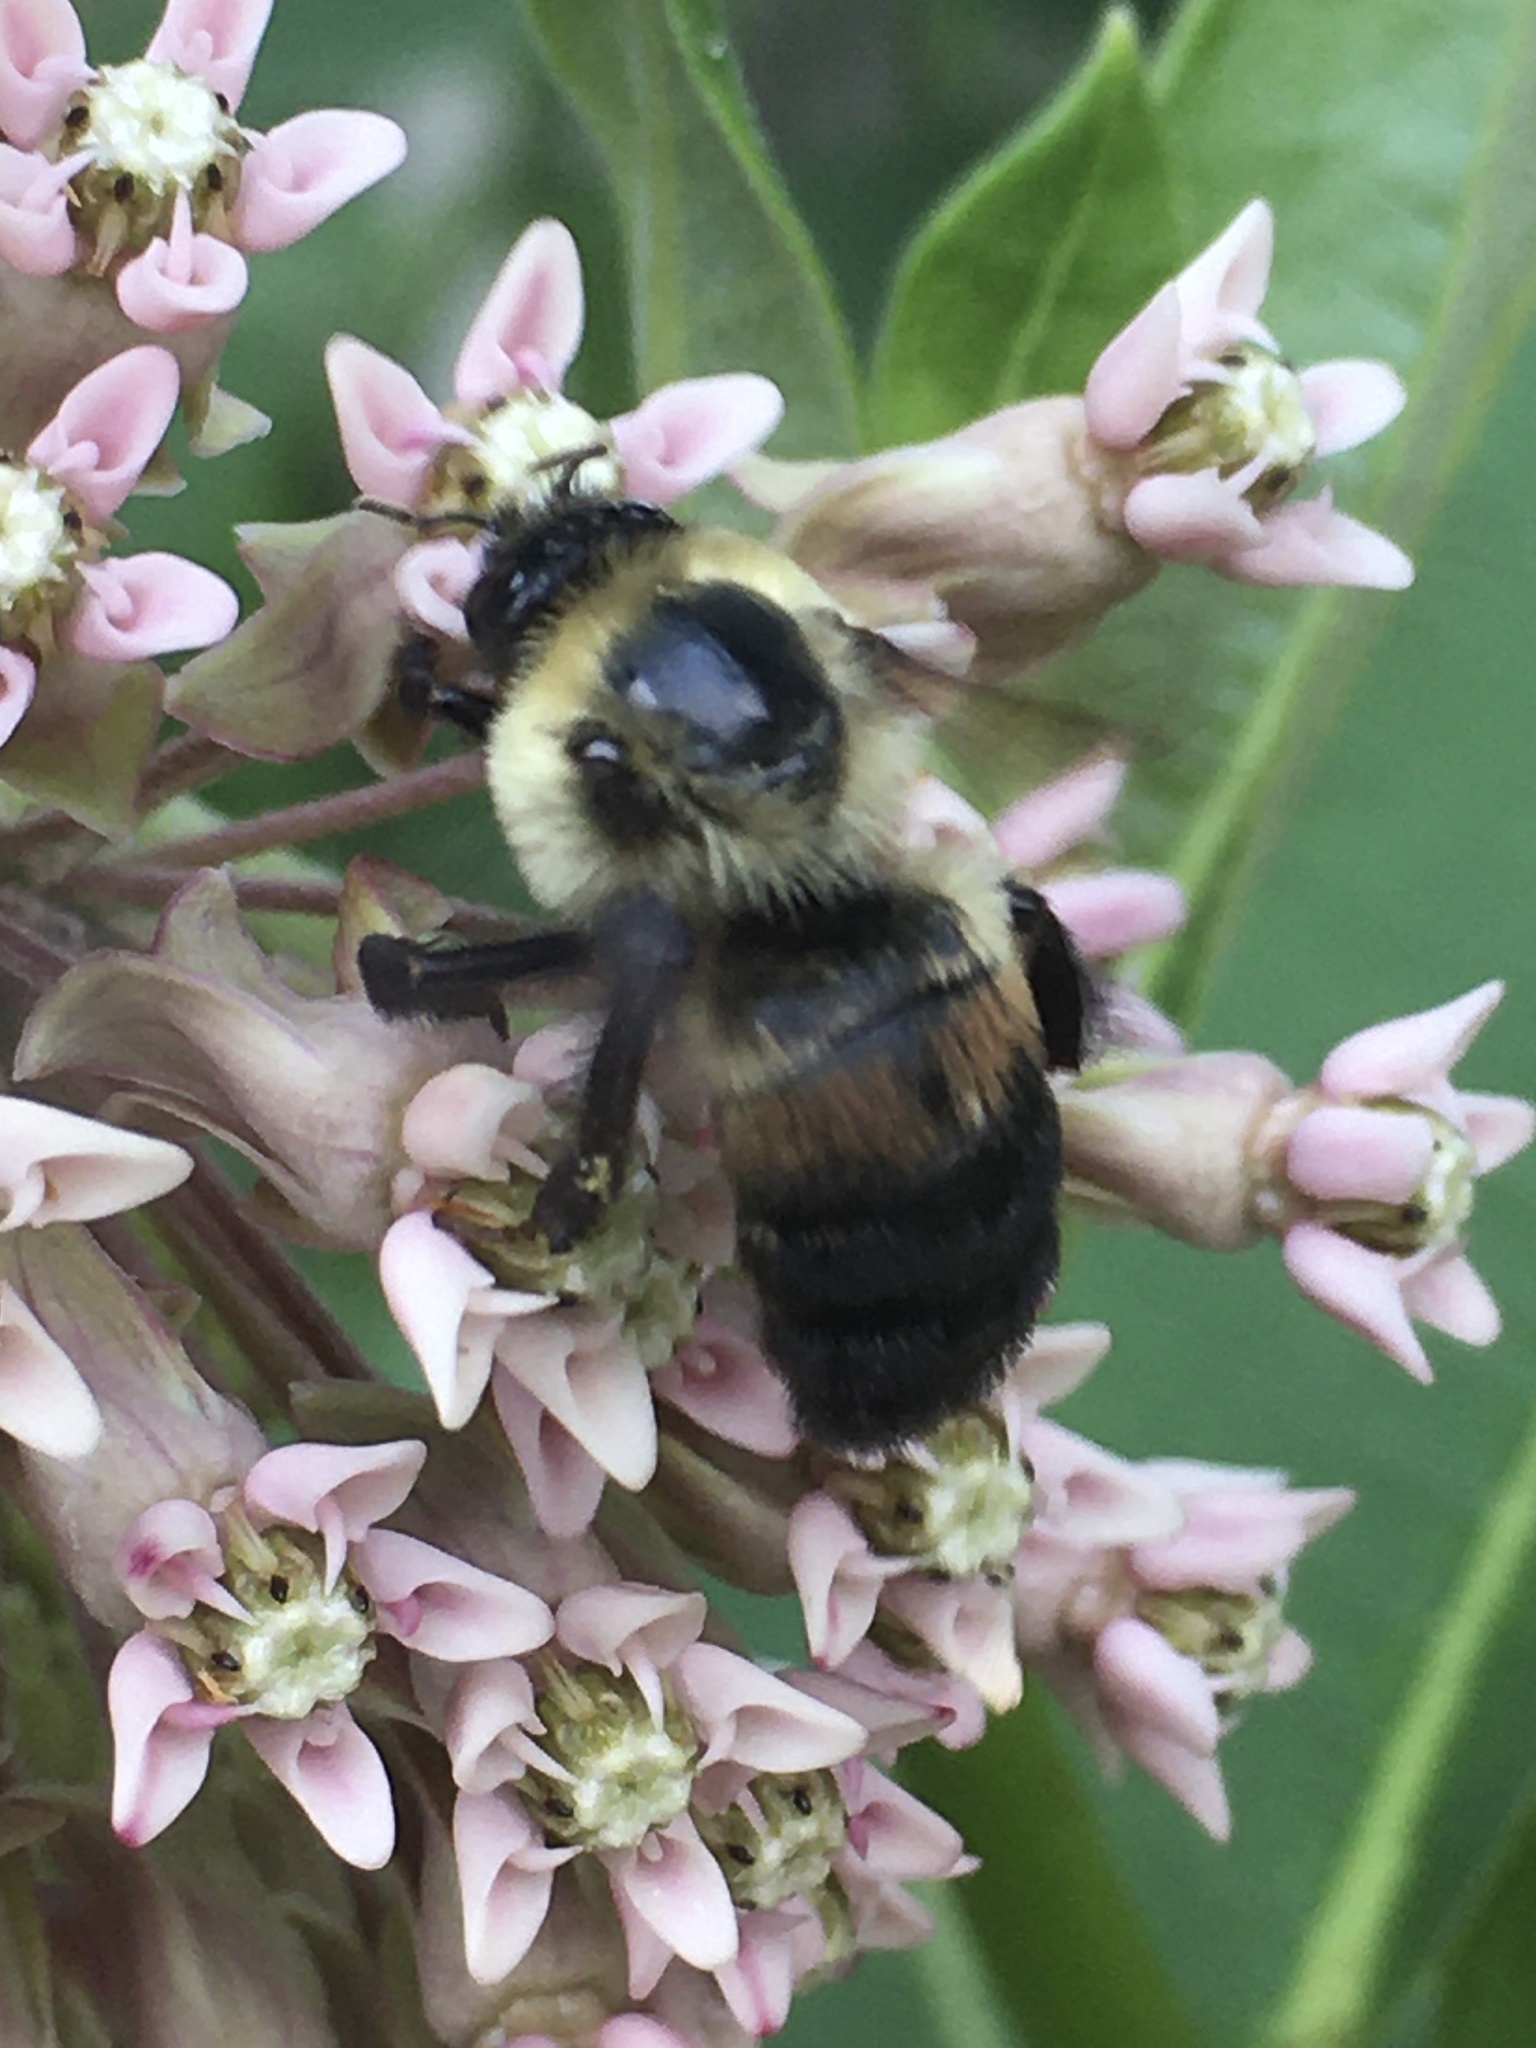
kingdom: Animalia
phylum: Arthropoda
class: Insecta
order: Hymenoptera
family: Apidae
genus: Bombus
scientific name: Bombus griseocollis
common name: Brown-belted bumble bee
